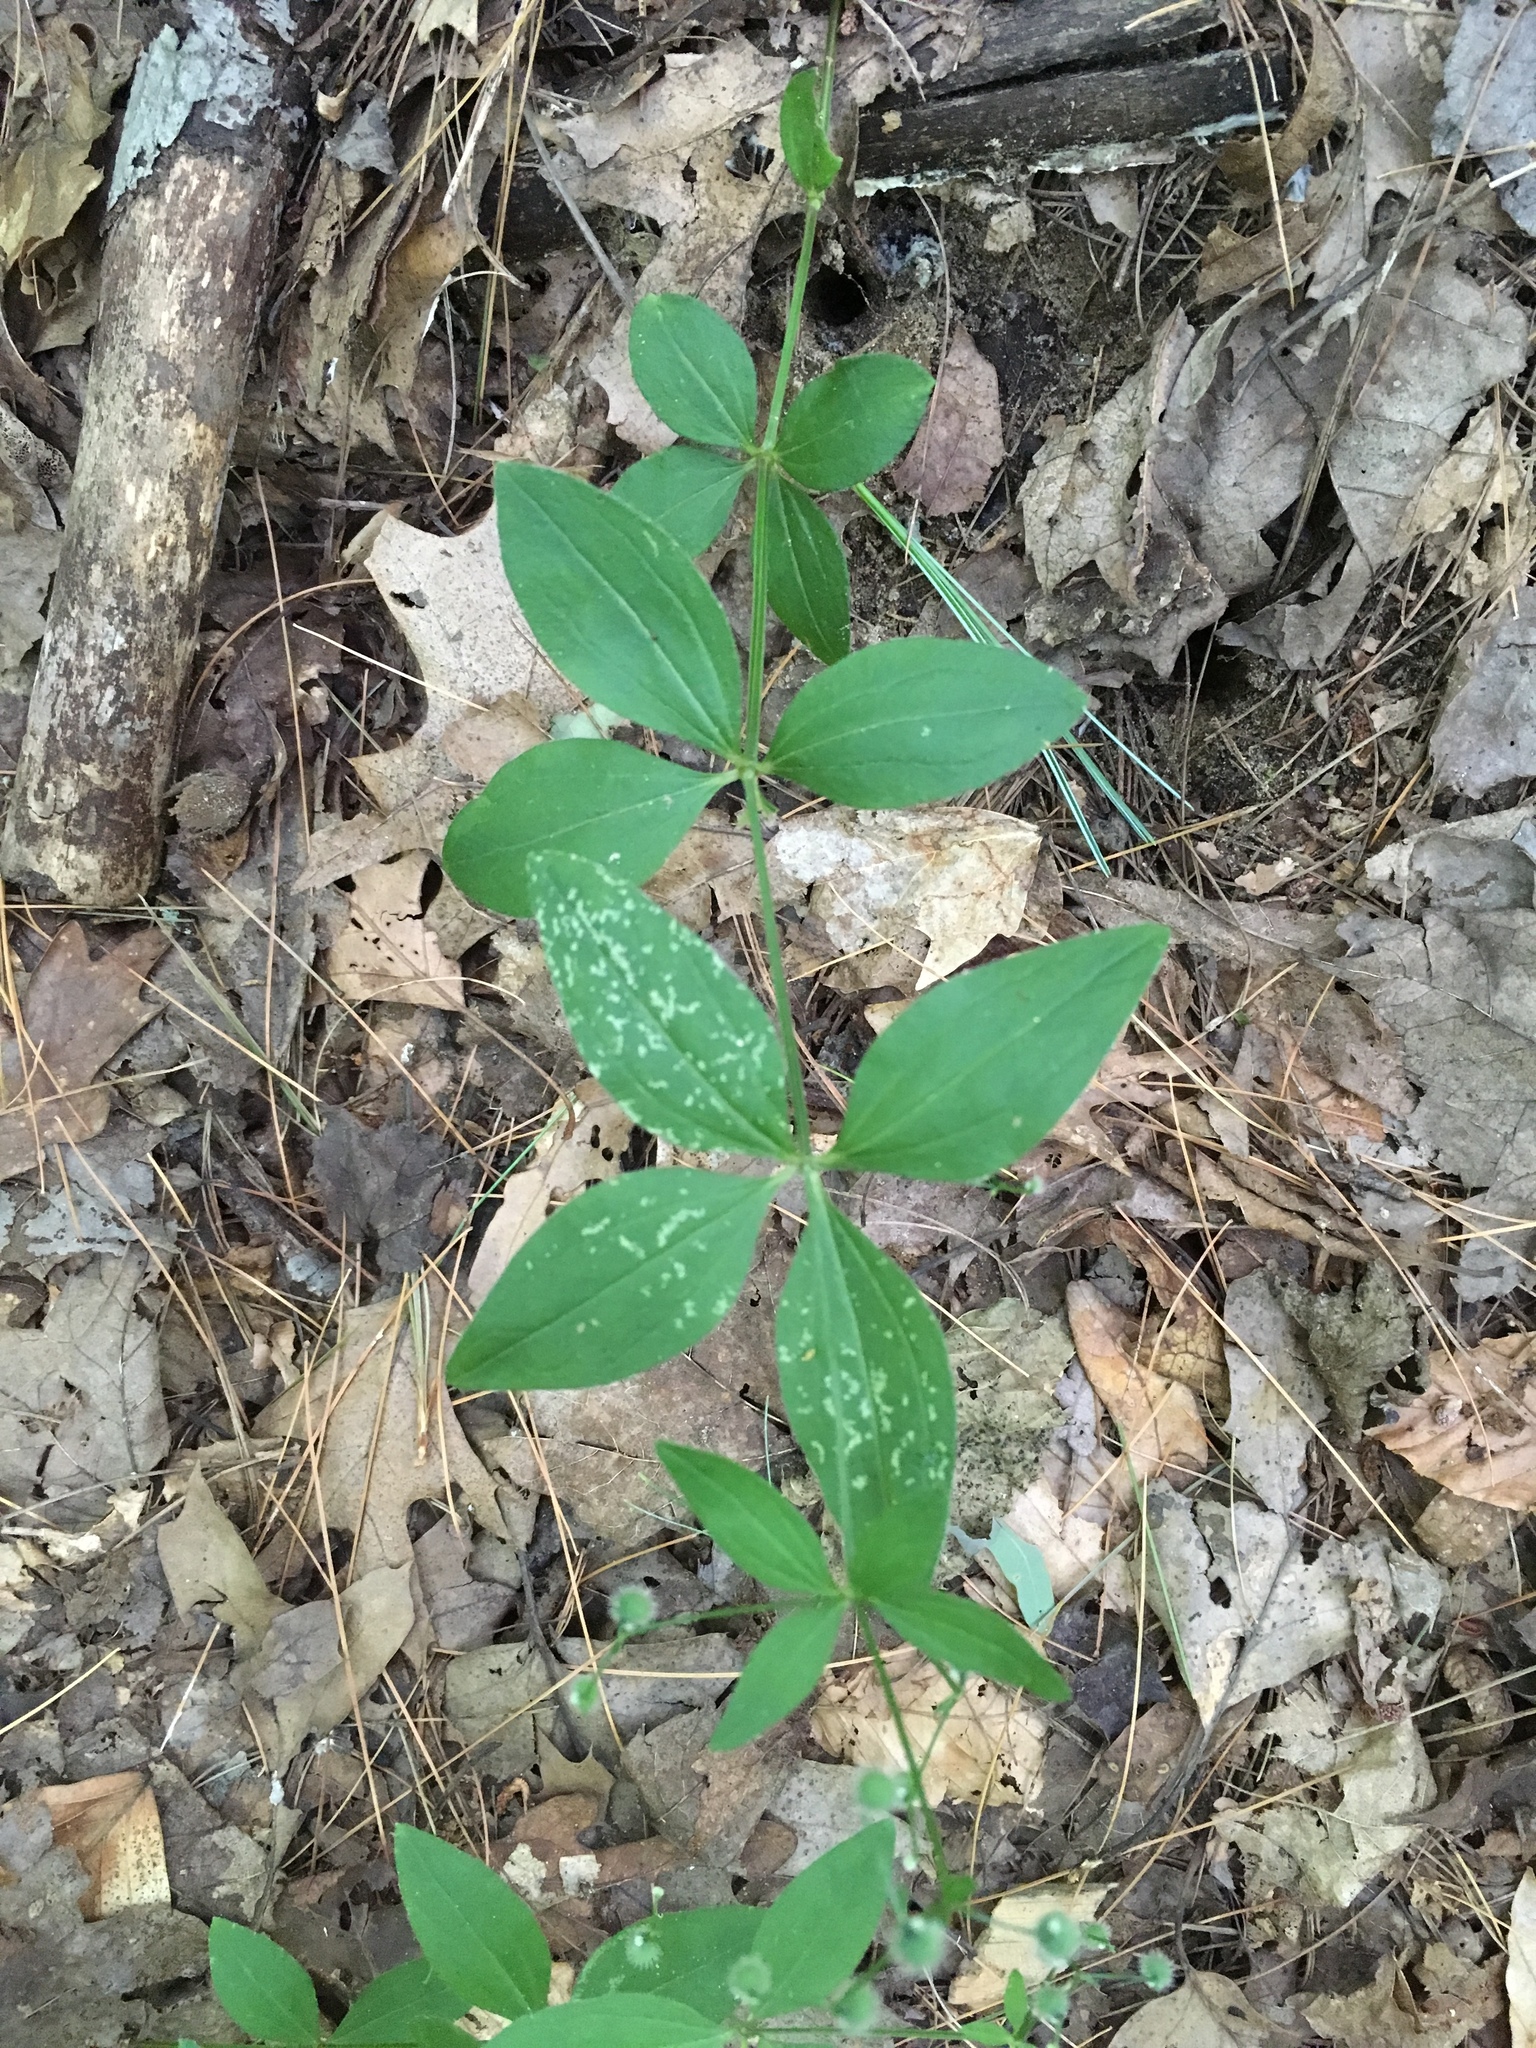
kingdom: Plantae
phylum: Tracheophyta
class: Magnoliopsida
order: Gentianales
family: Rubiaceae
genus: Galium
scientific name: Galium circaezans
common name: Forest bedstraw
